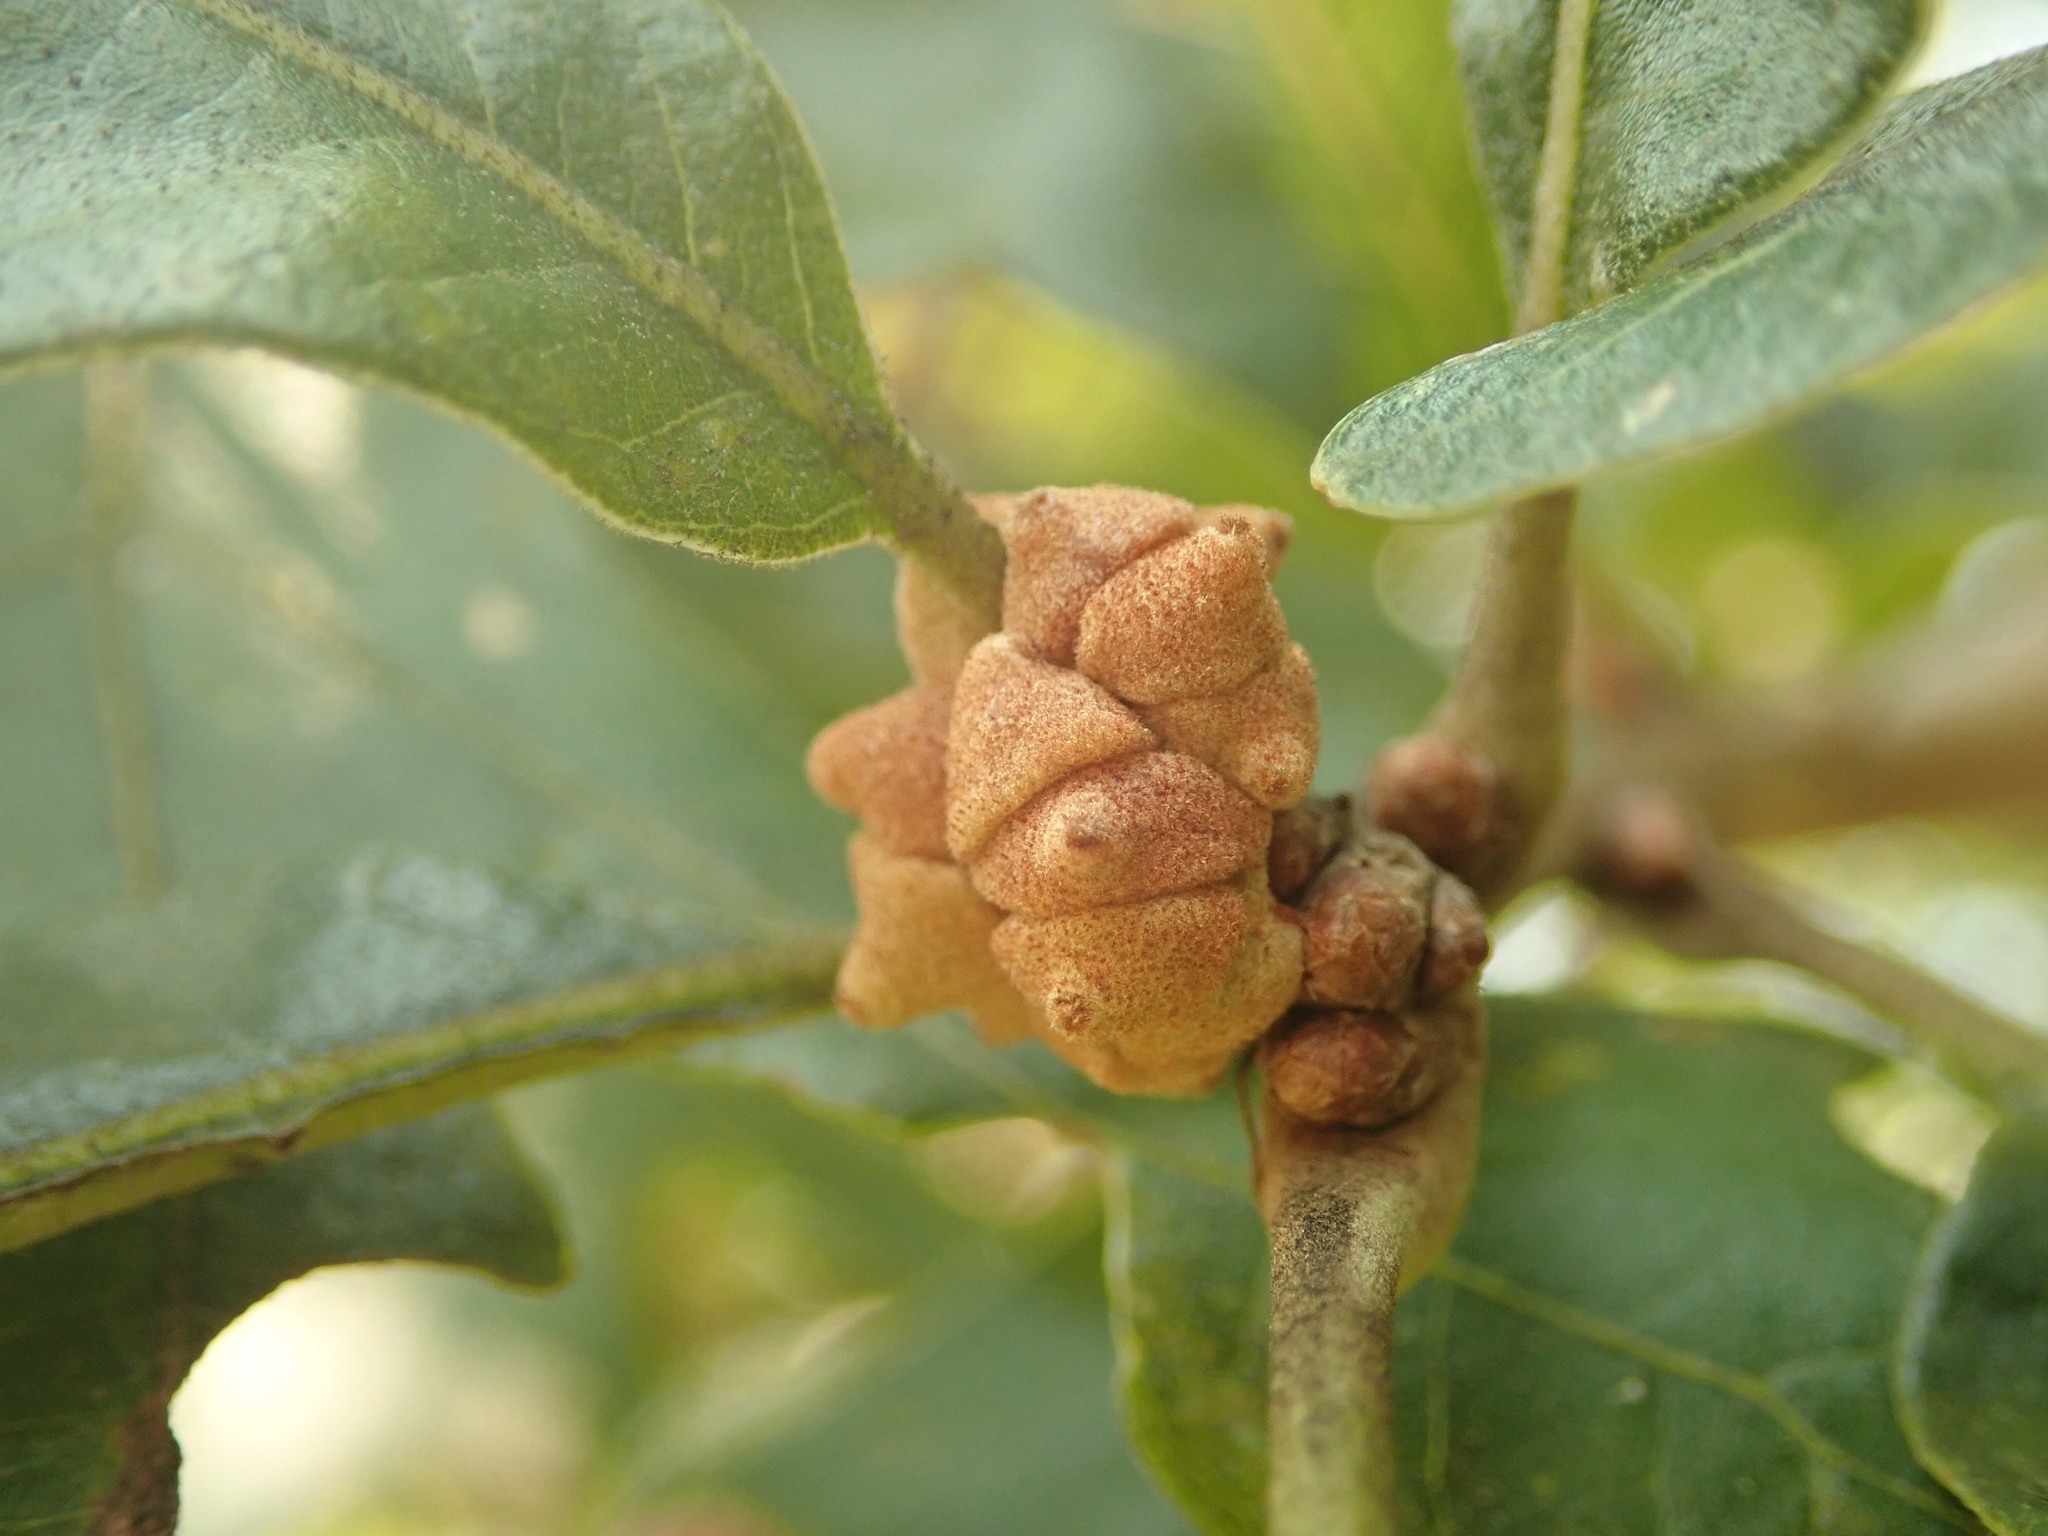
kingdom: Animalia
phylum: Arthropoda
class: Insecta
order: Hymenoptera
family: Cynipidae
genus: Andricus
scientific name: Andricus
